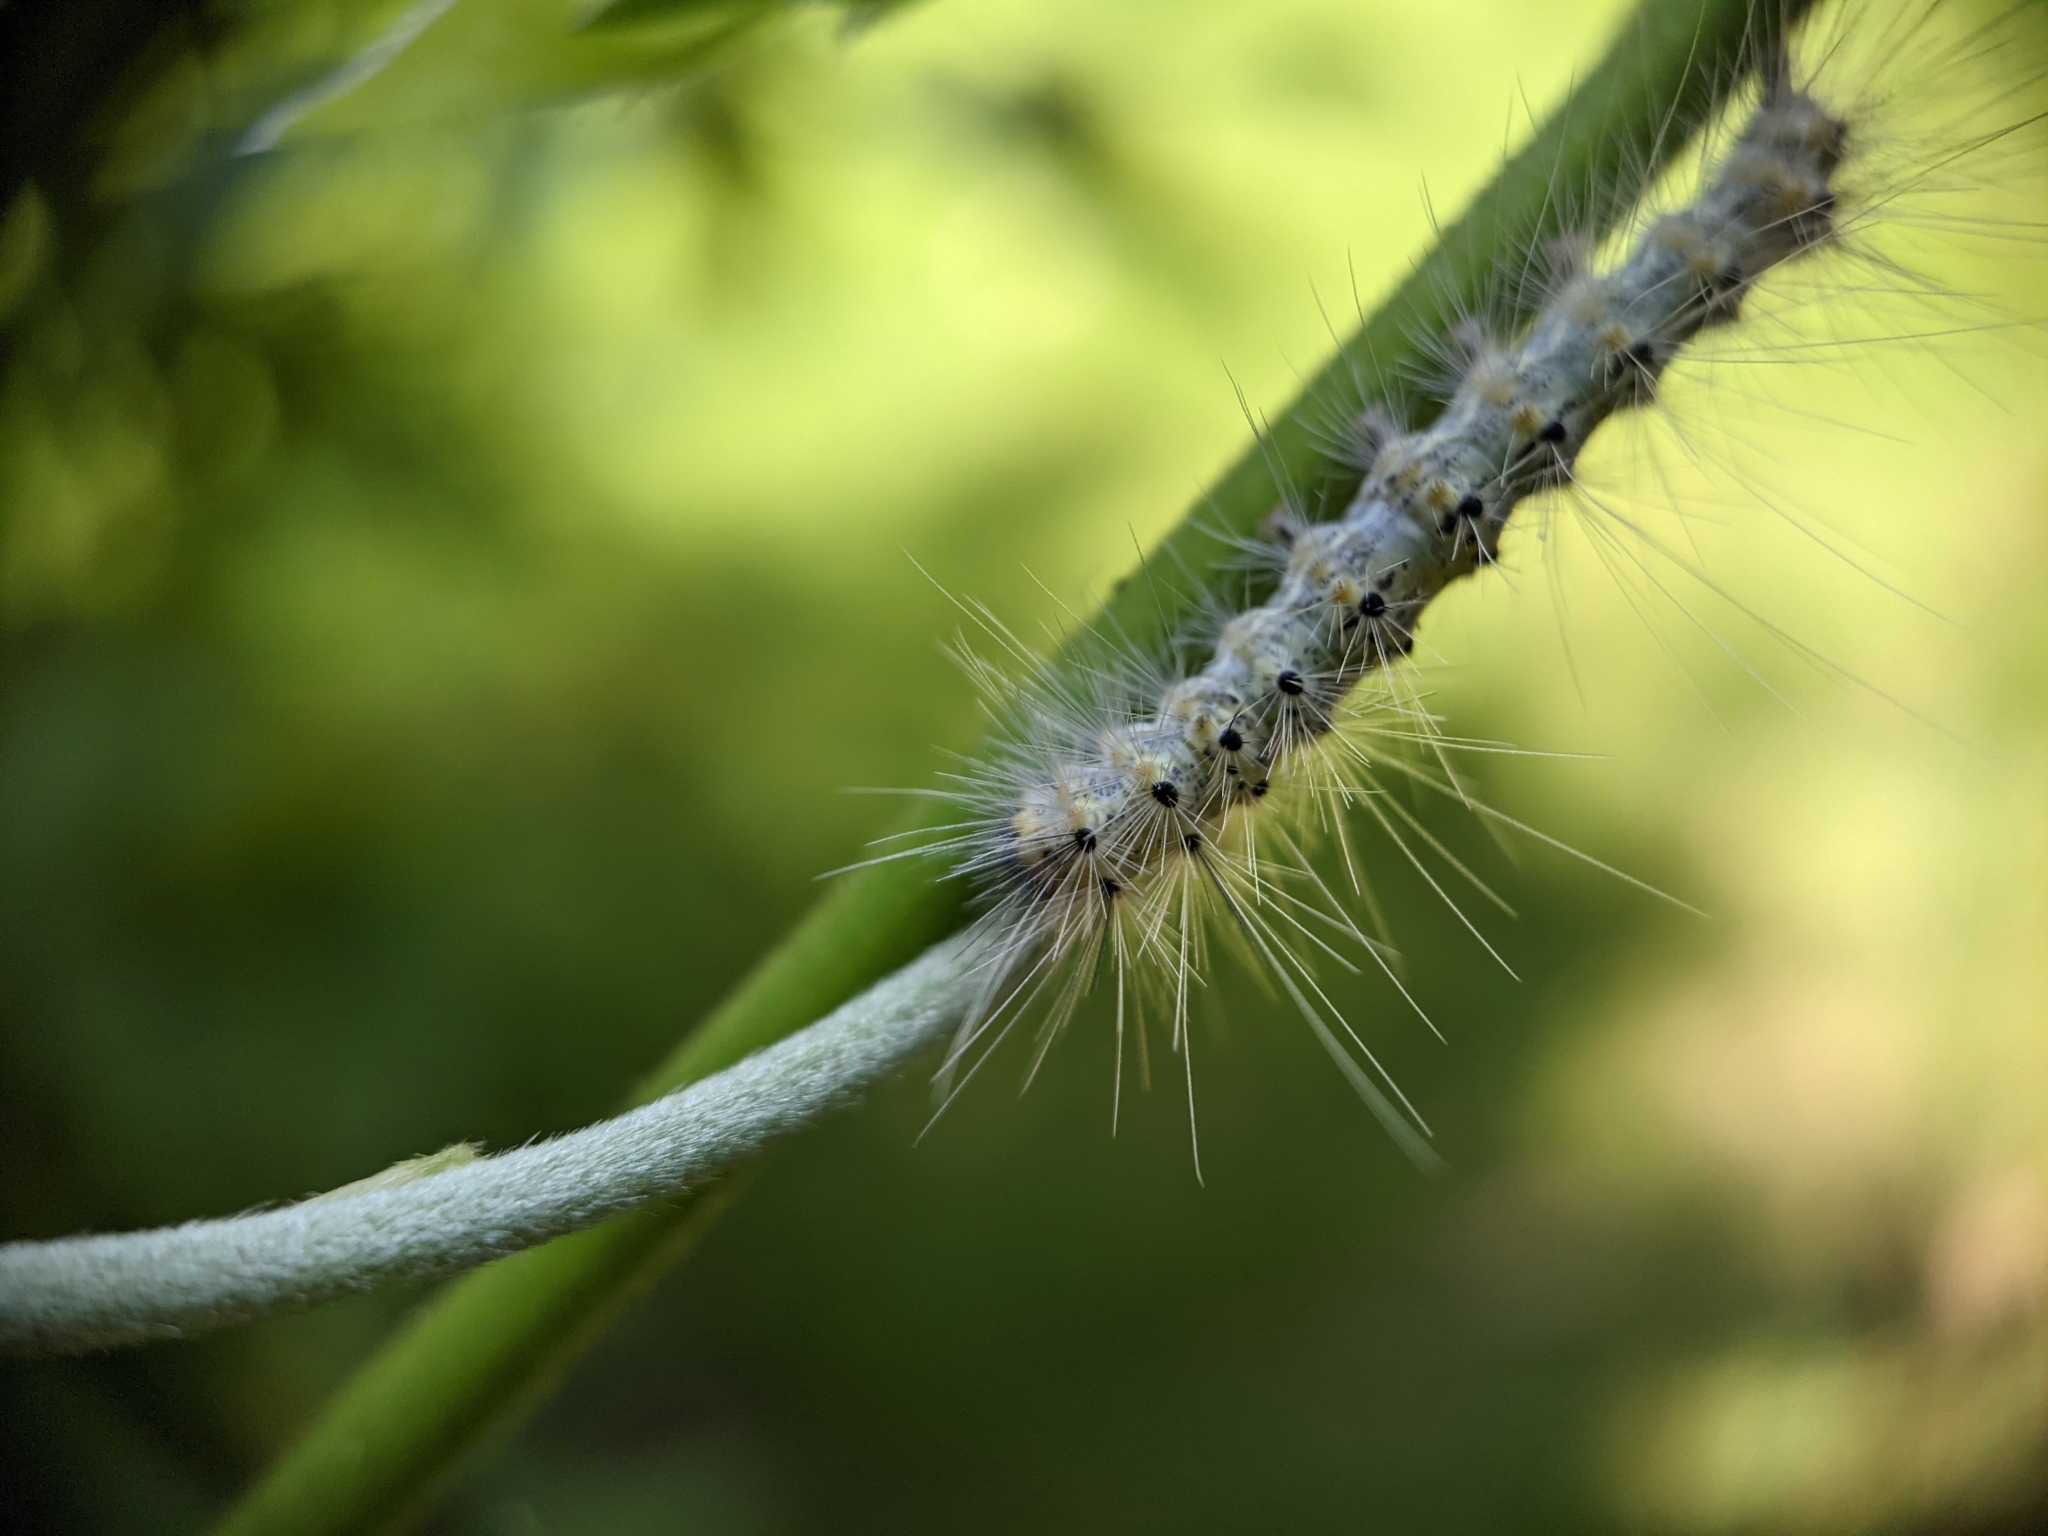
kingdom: Animalia
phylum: Arthropoda
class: Insecta
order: Lepidoptera
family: Erebidae
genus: Hyphantria
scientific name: Hyphantria cunea
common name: American white moth
